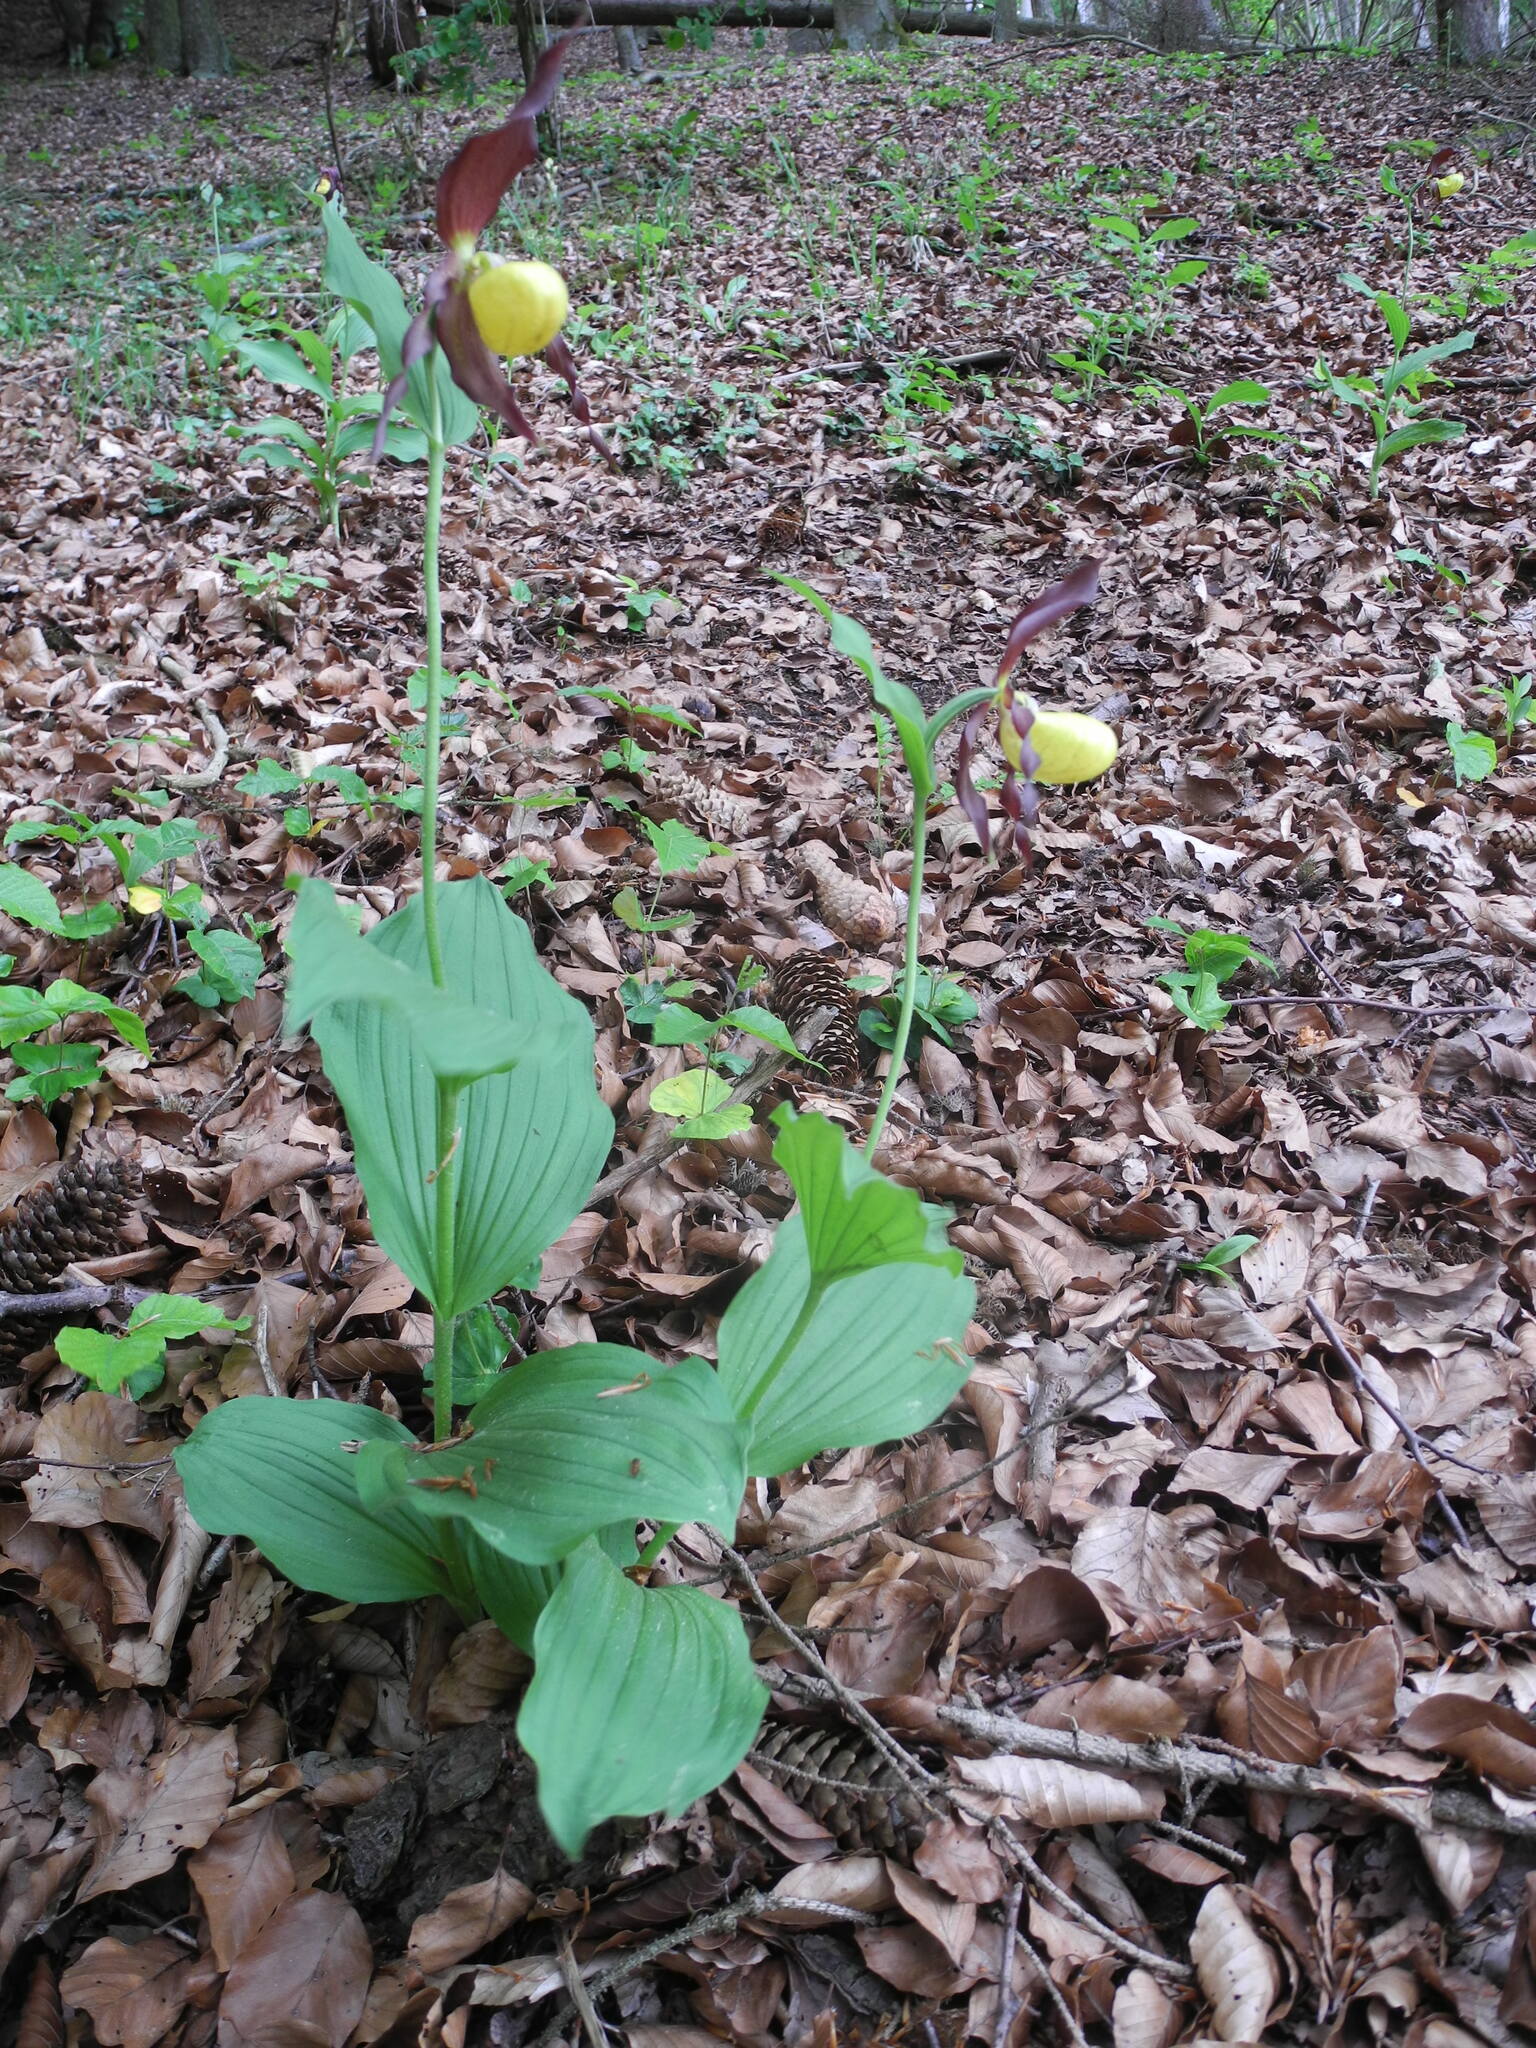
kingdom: Plantae
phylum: Tracheophyta
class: Liliopsida
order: Asparagales
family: Orchidaceae
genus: Cypripedium
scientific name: Cypripedium calceolus
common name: Lady's-slipper
